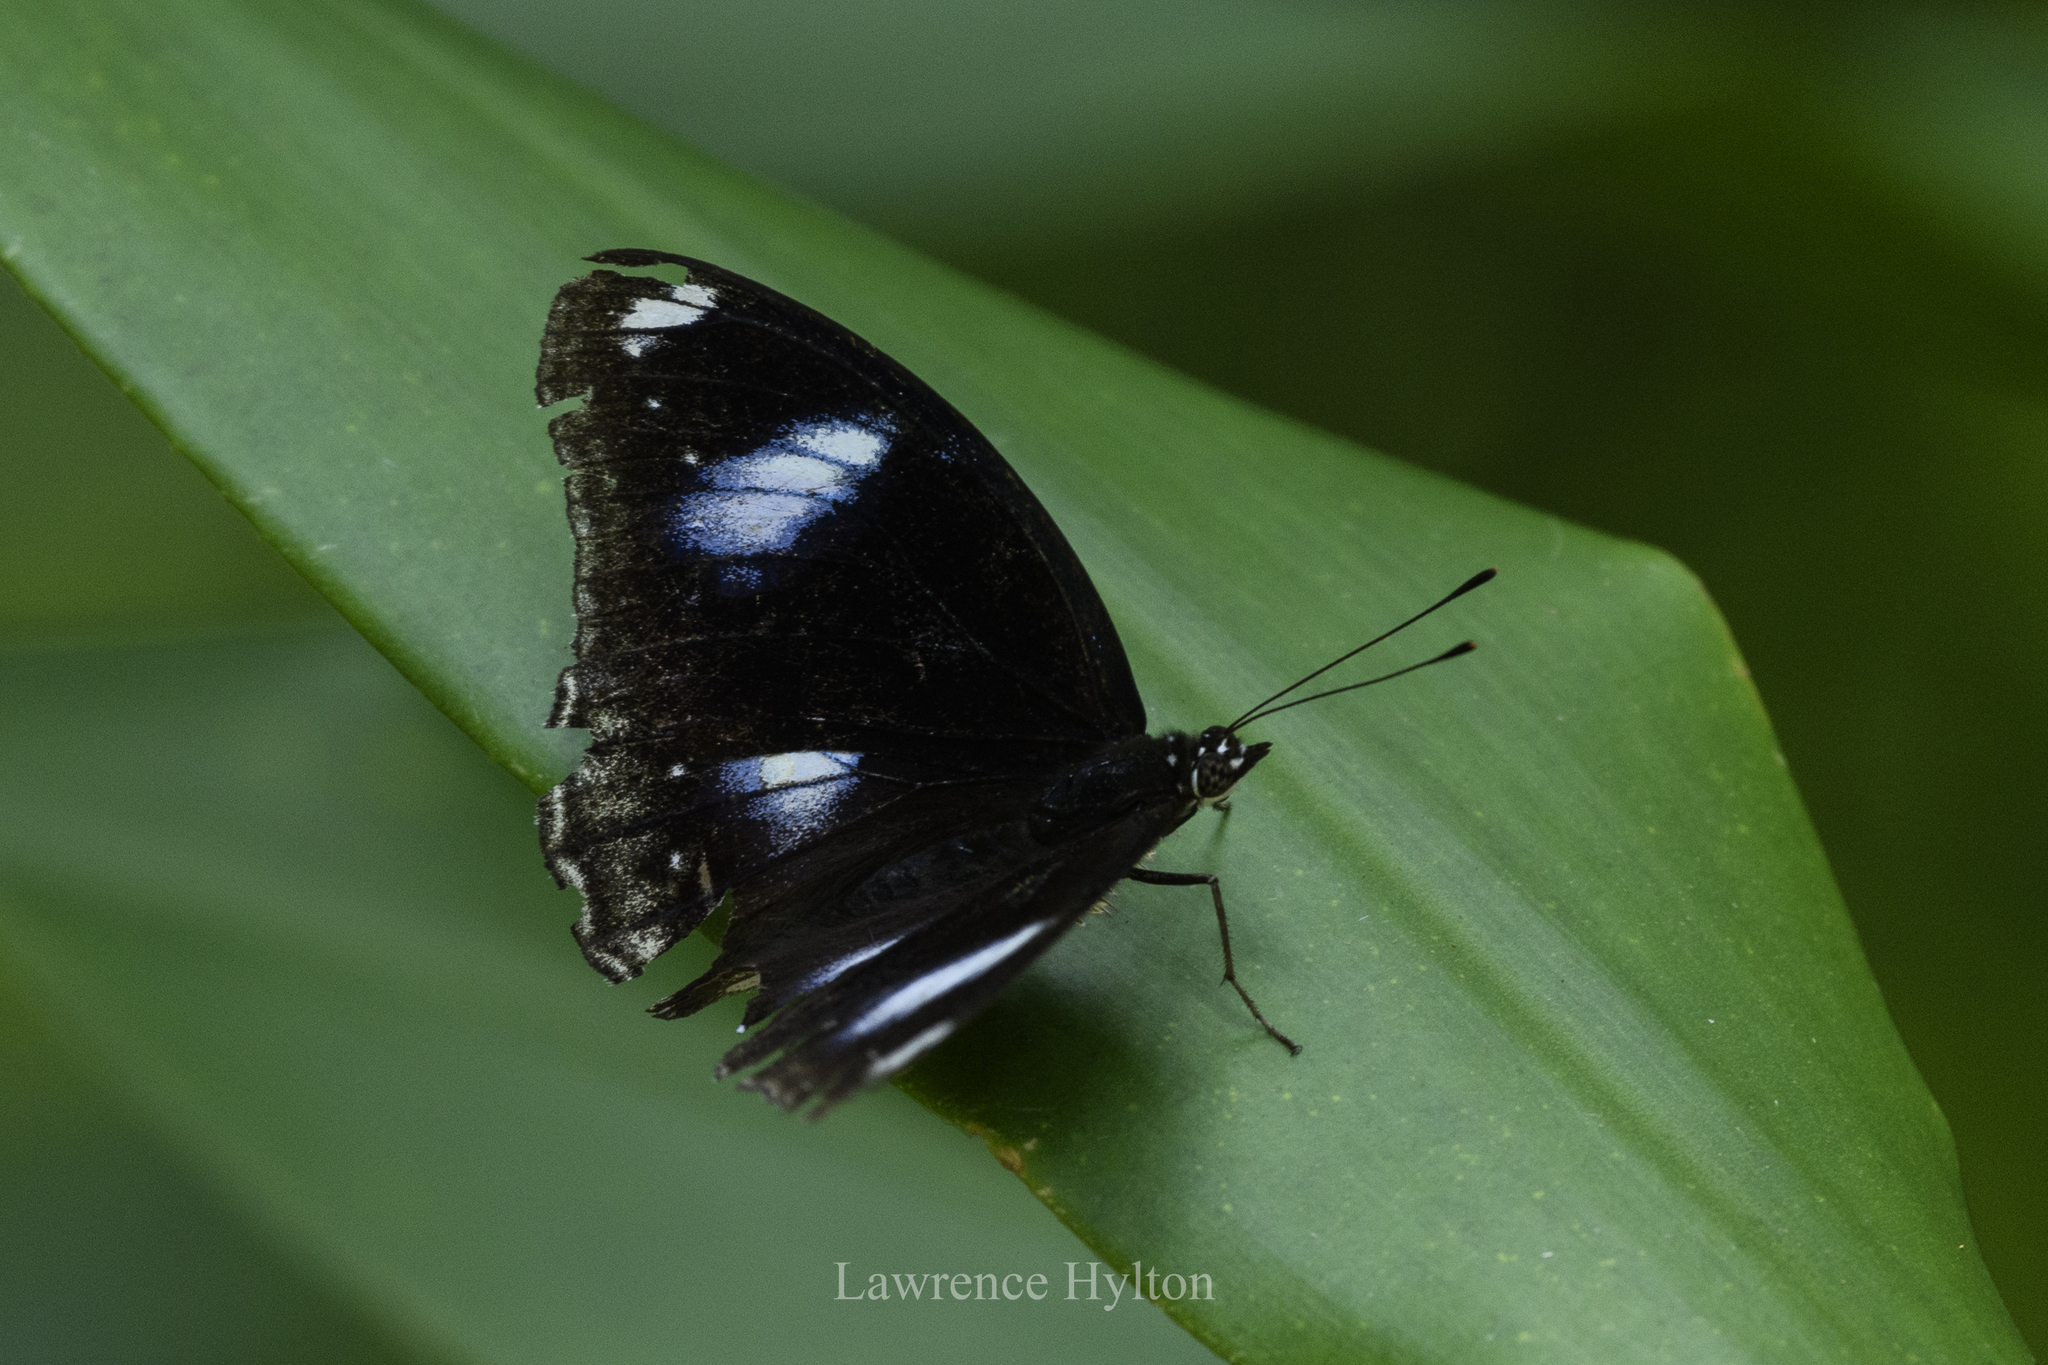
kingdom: Animalia
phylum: Arthropoda
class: Insecta
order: Lepidoptera
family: Nymphalidae
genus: Hypolimnas
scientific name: Hypolimnas bolina
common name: Great eggfly
